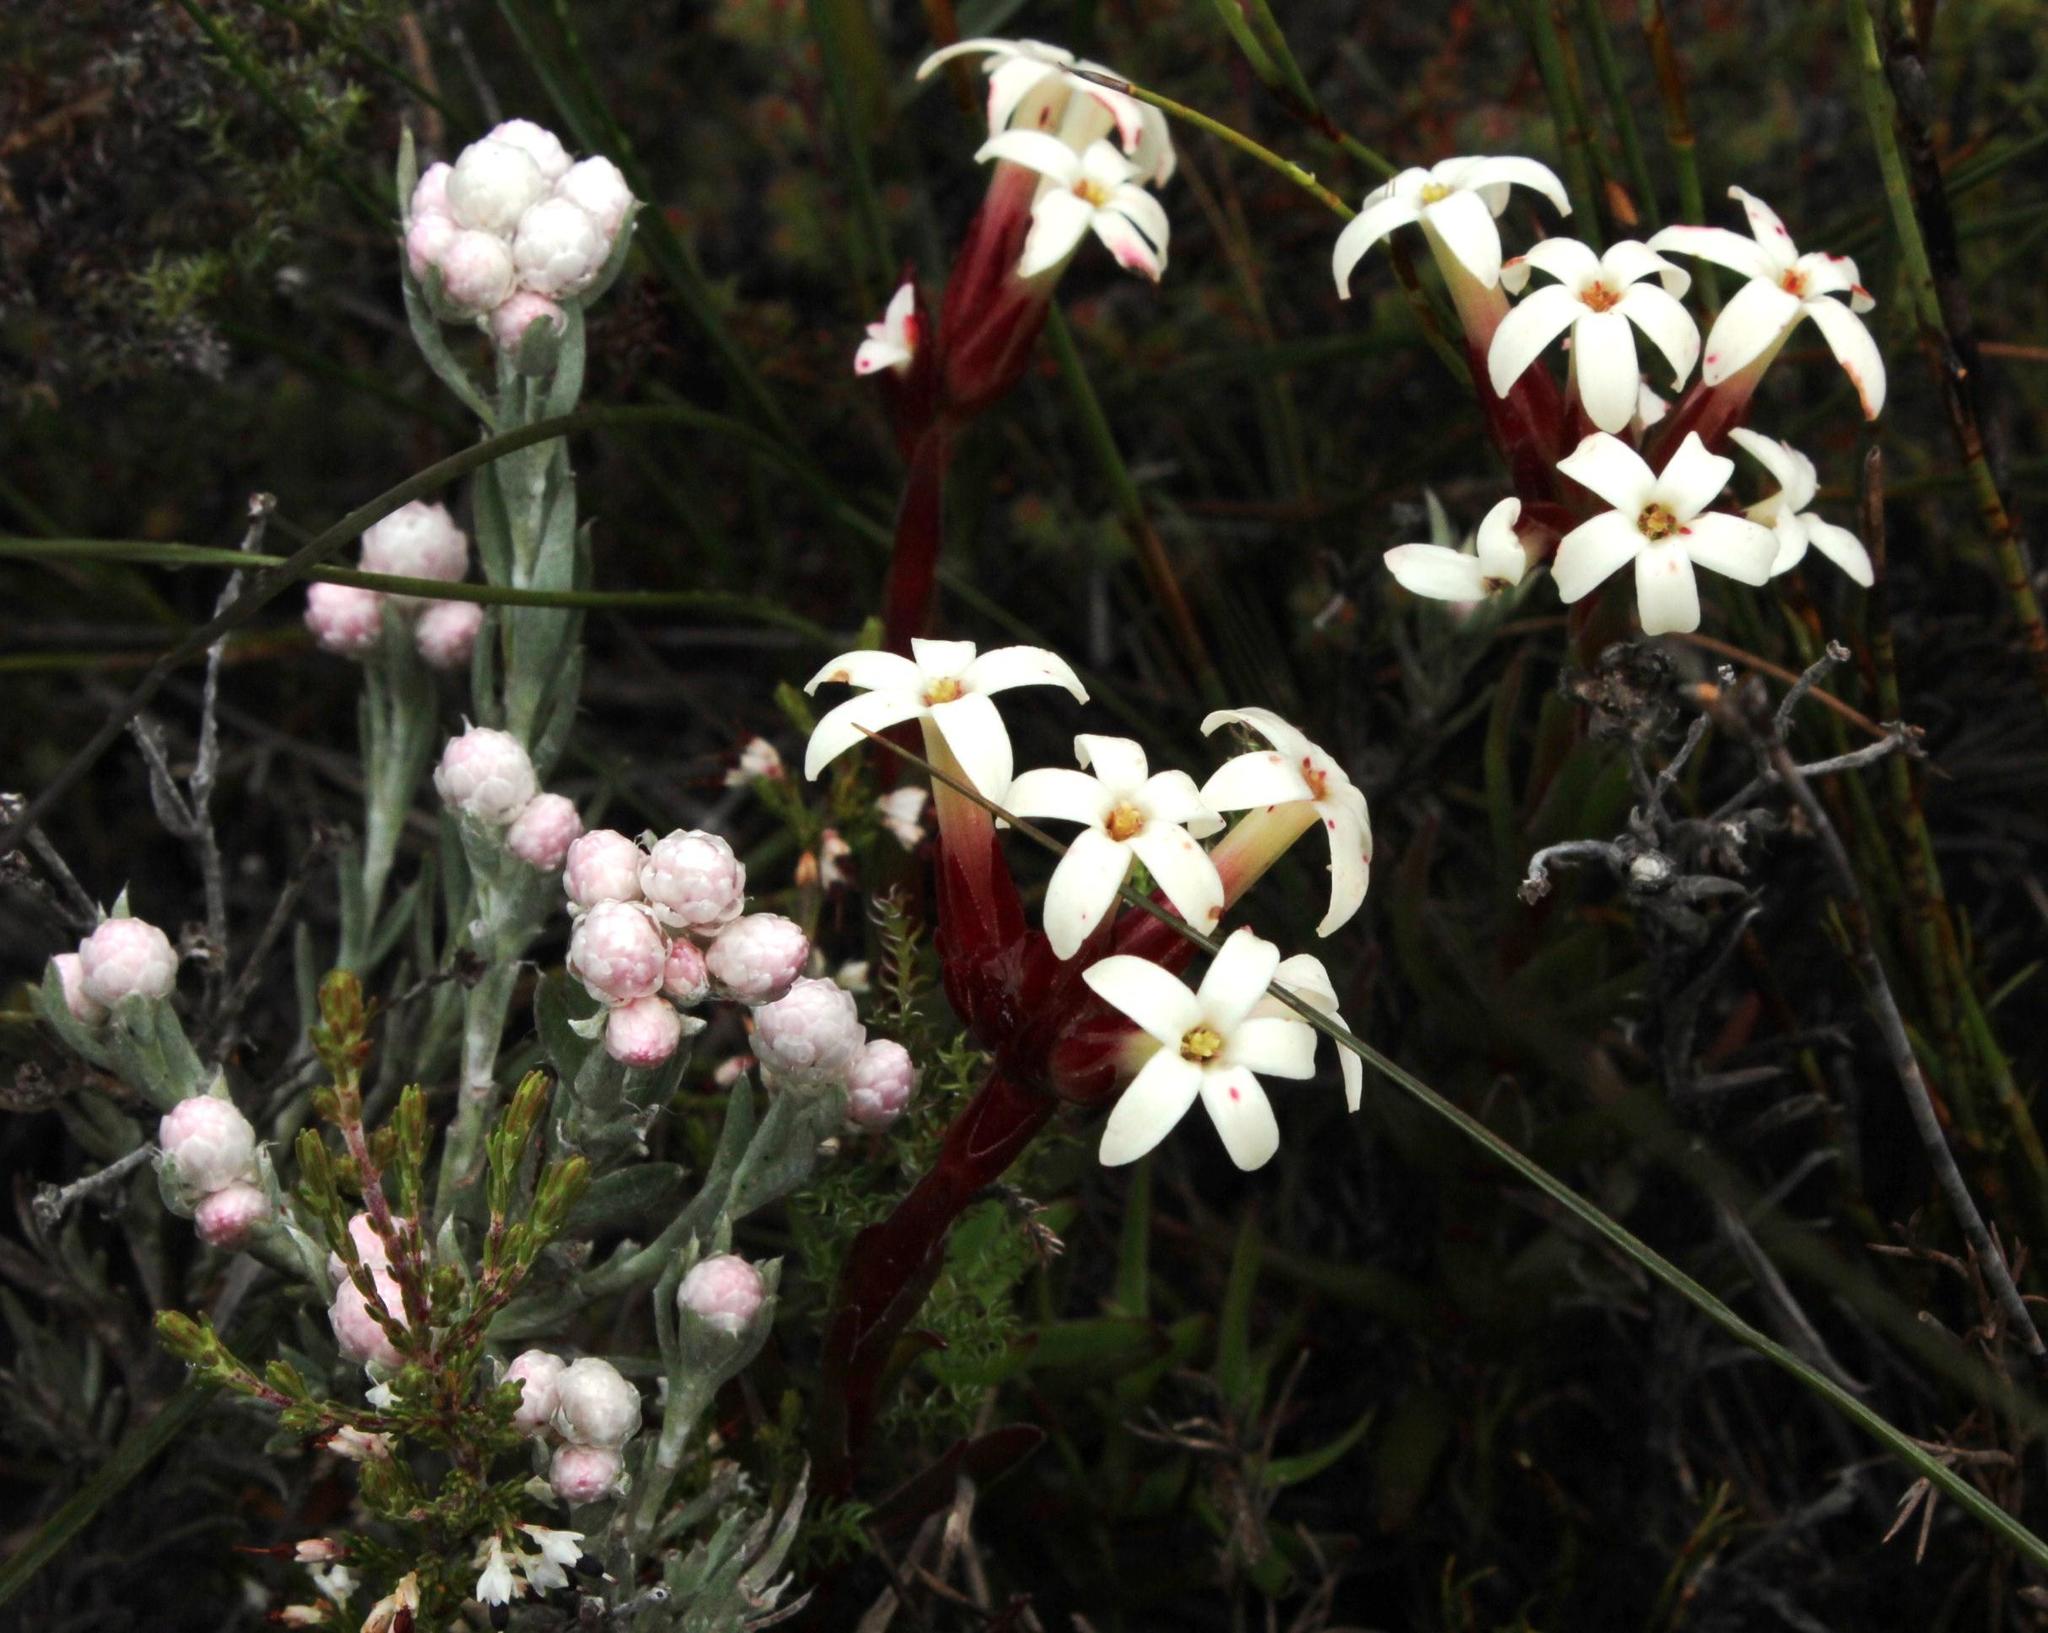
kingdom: Plantae
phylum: Tracheophyta
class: Magnoliopsida
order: Saxifragales
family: Crassulaceae
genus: Crassula
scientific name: Crassula fascicularis
